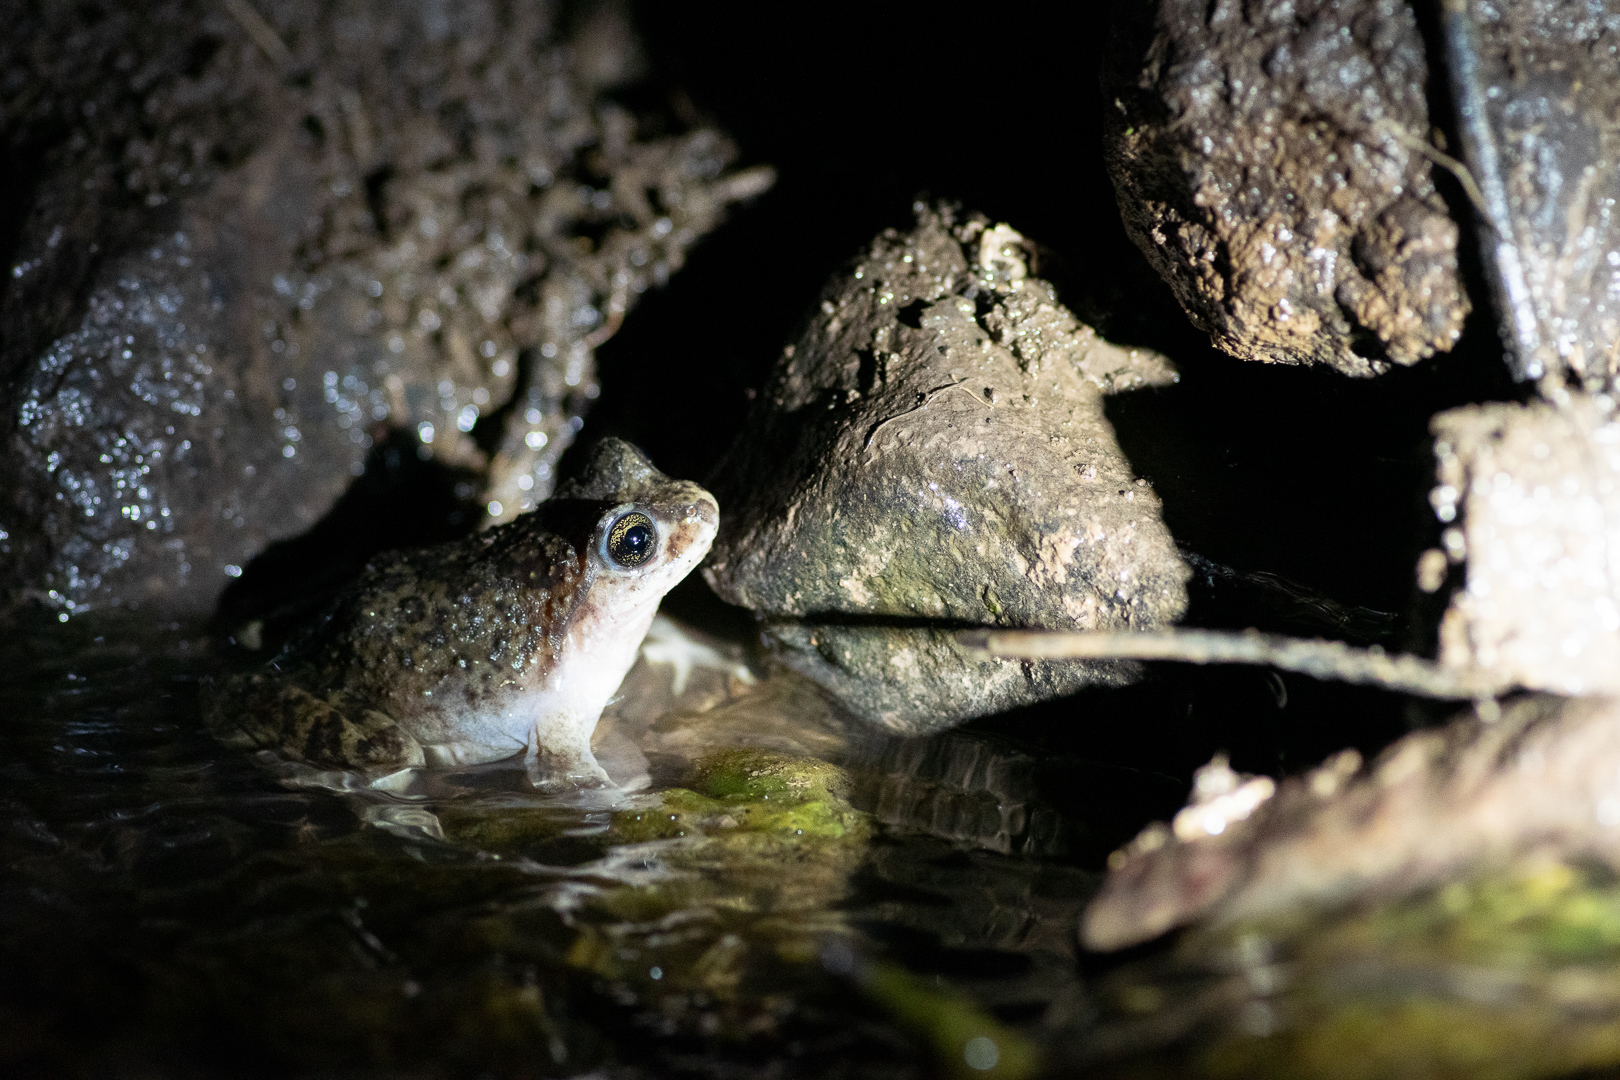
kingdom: Animalia
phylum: Chordata
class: Amphibia
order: Anura
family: Alsodidae
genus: Alsodes
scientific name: Alsodes nodosus
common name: Black spiny-chest frog
